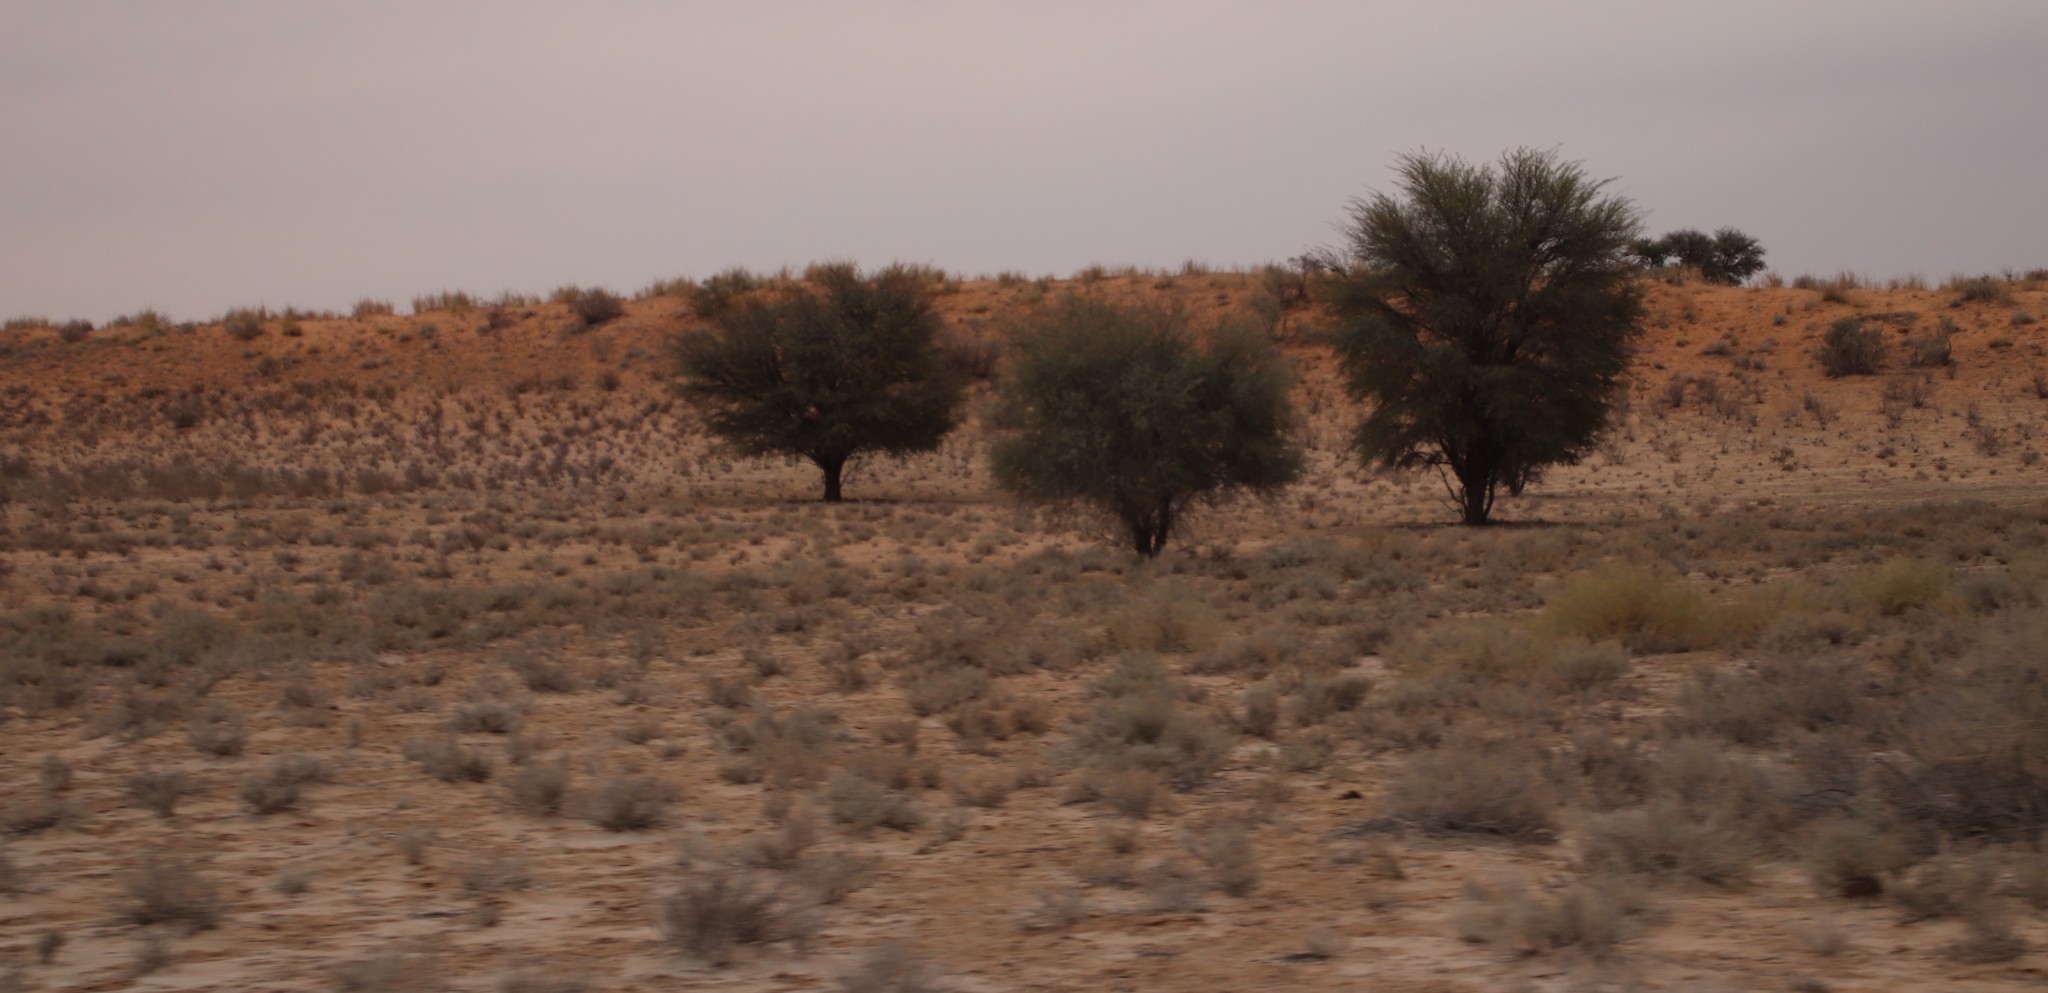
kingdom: Plantae
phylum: Tracheophyta
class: Magnoliopsida
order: Fabales
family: Fabaceae
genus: Vachellia
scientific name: Vachellia erioloba
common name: Camel thorn
